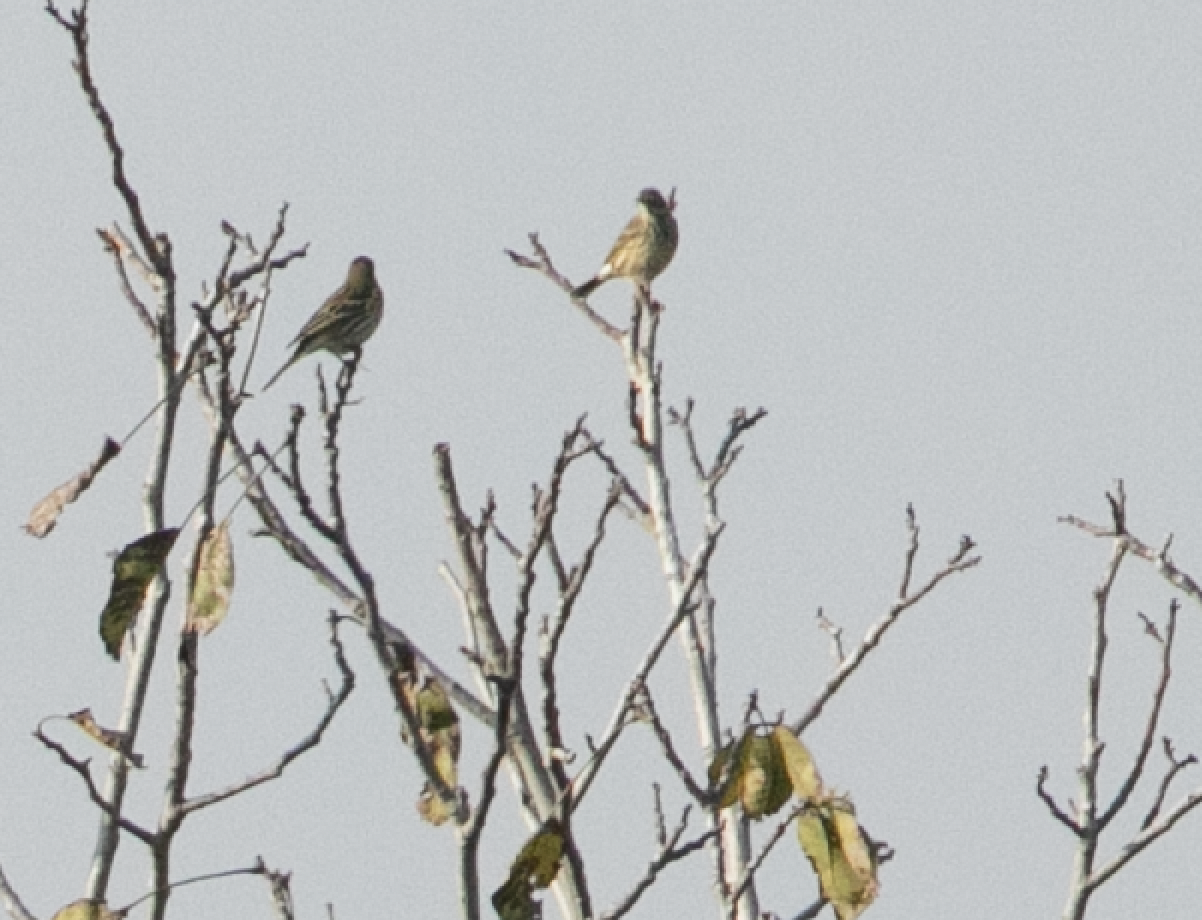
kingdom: Animalia
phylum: Chordata
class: Aves
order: Passeriformes
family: Motacillidae
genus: Anthus
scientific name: Anthus pratensis
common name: Meadow pipit
